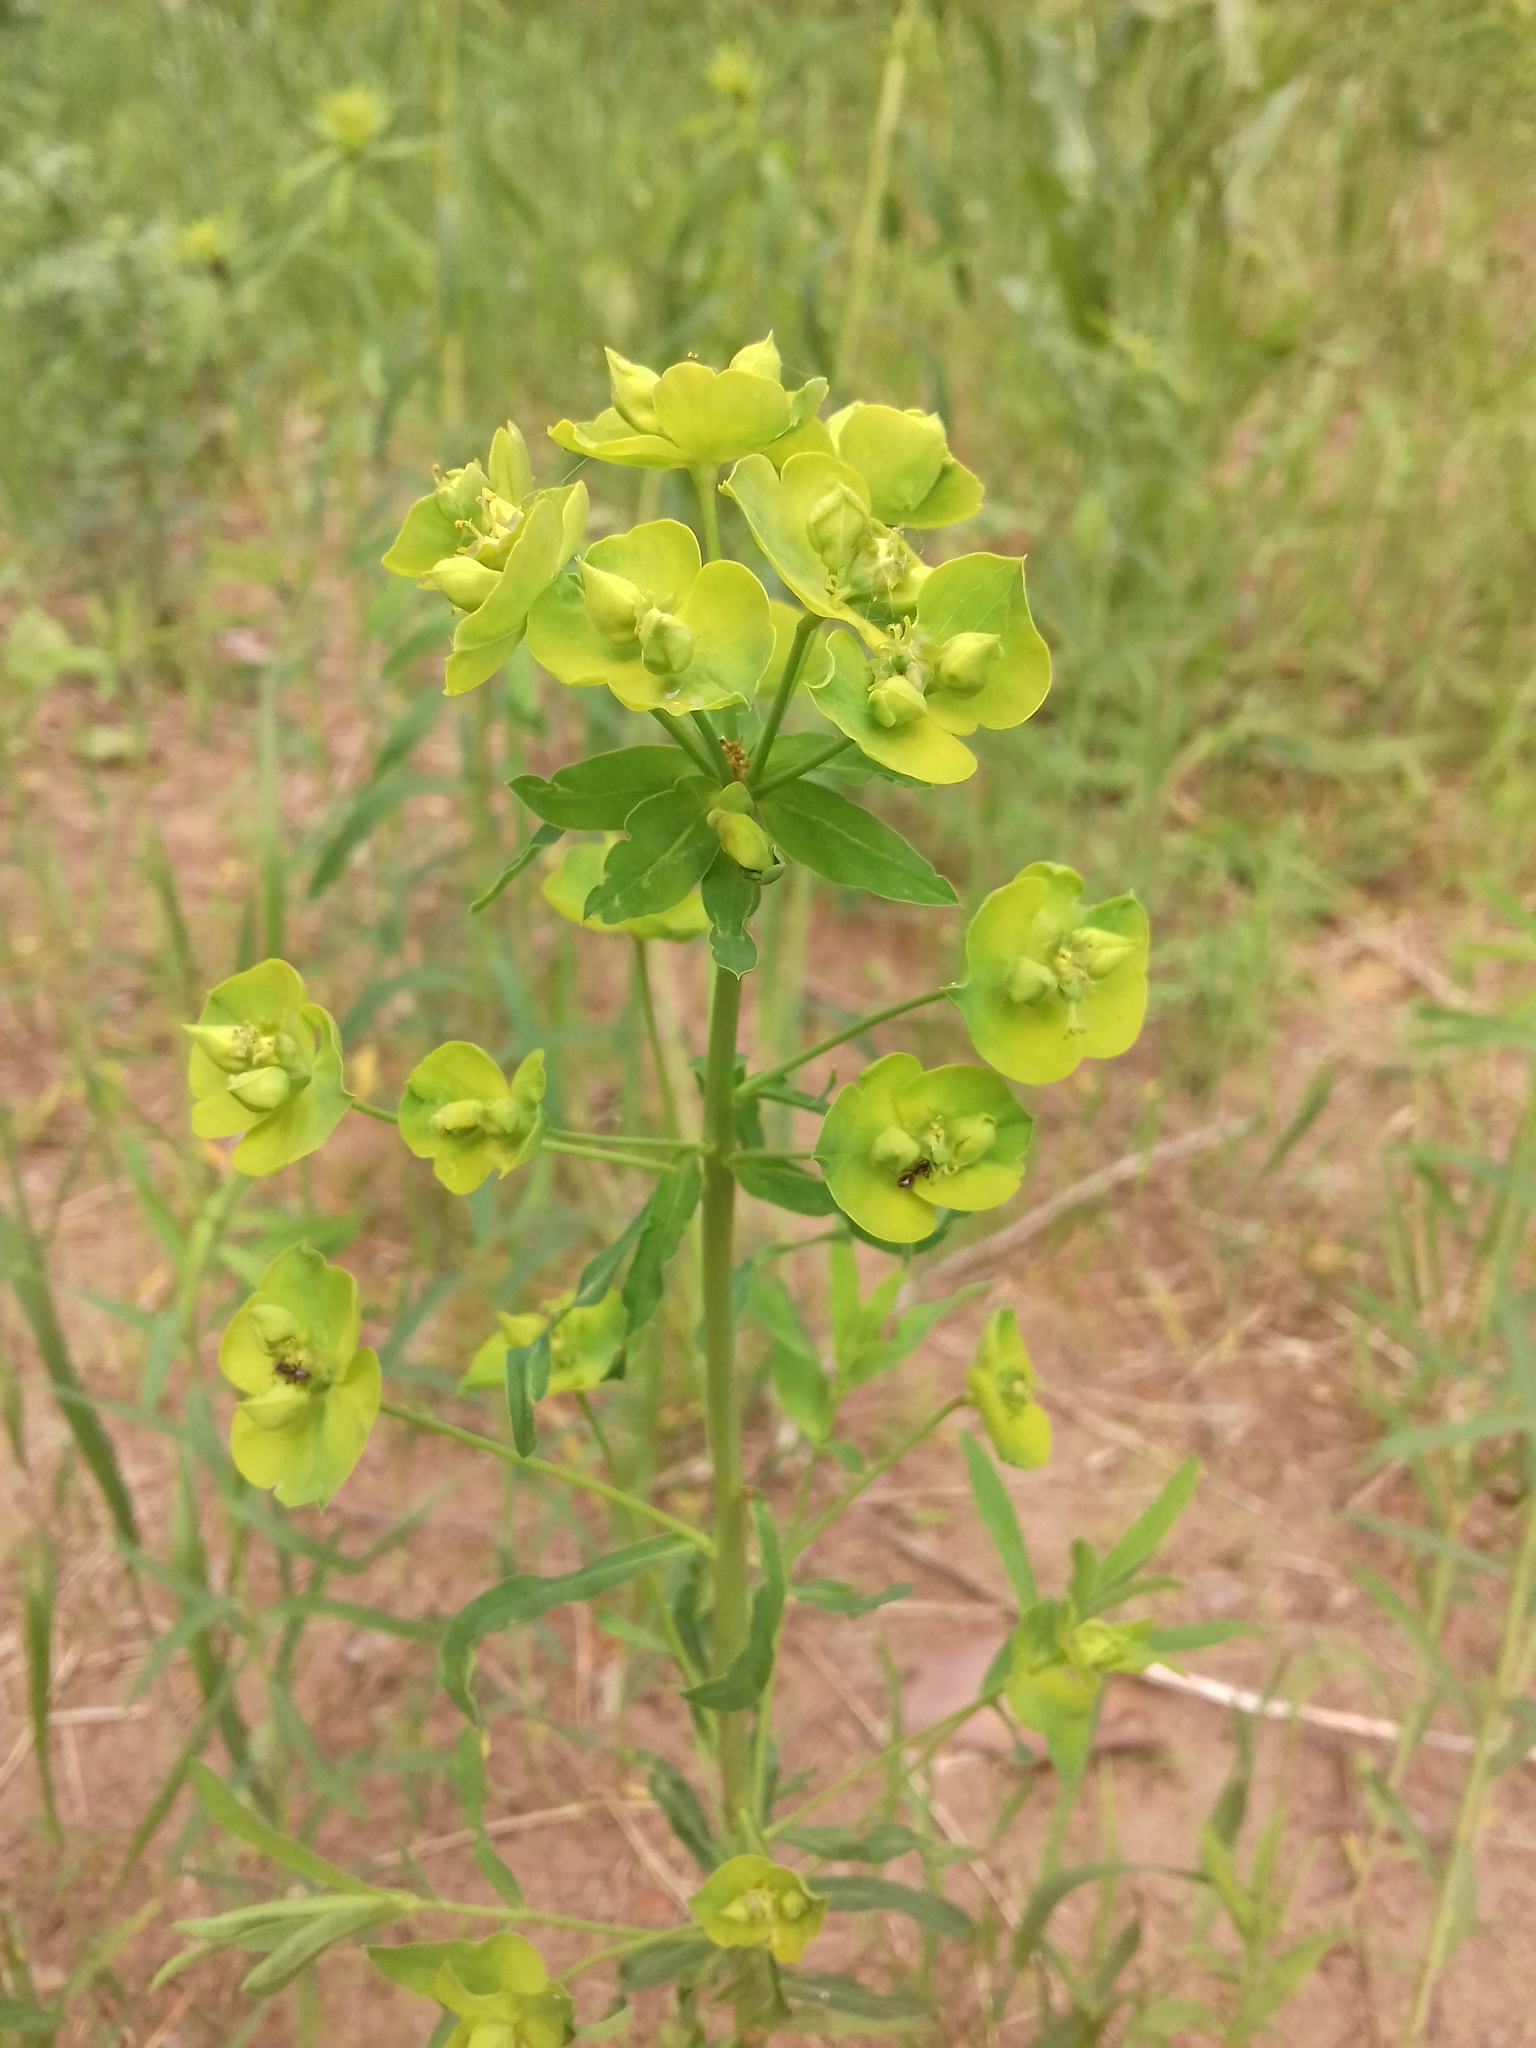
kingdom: Plantae
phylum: Tracheophyta
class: Magnoliopsida
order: Malpighiales
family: Euphorbiaceae
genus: Euphorbia
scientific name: Euphorbia virgata
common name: Leafy spurge
